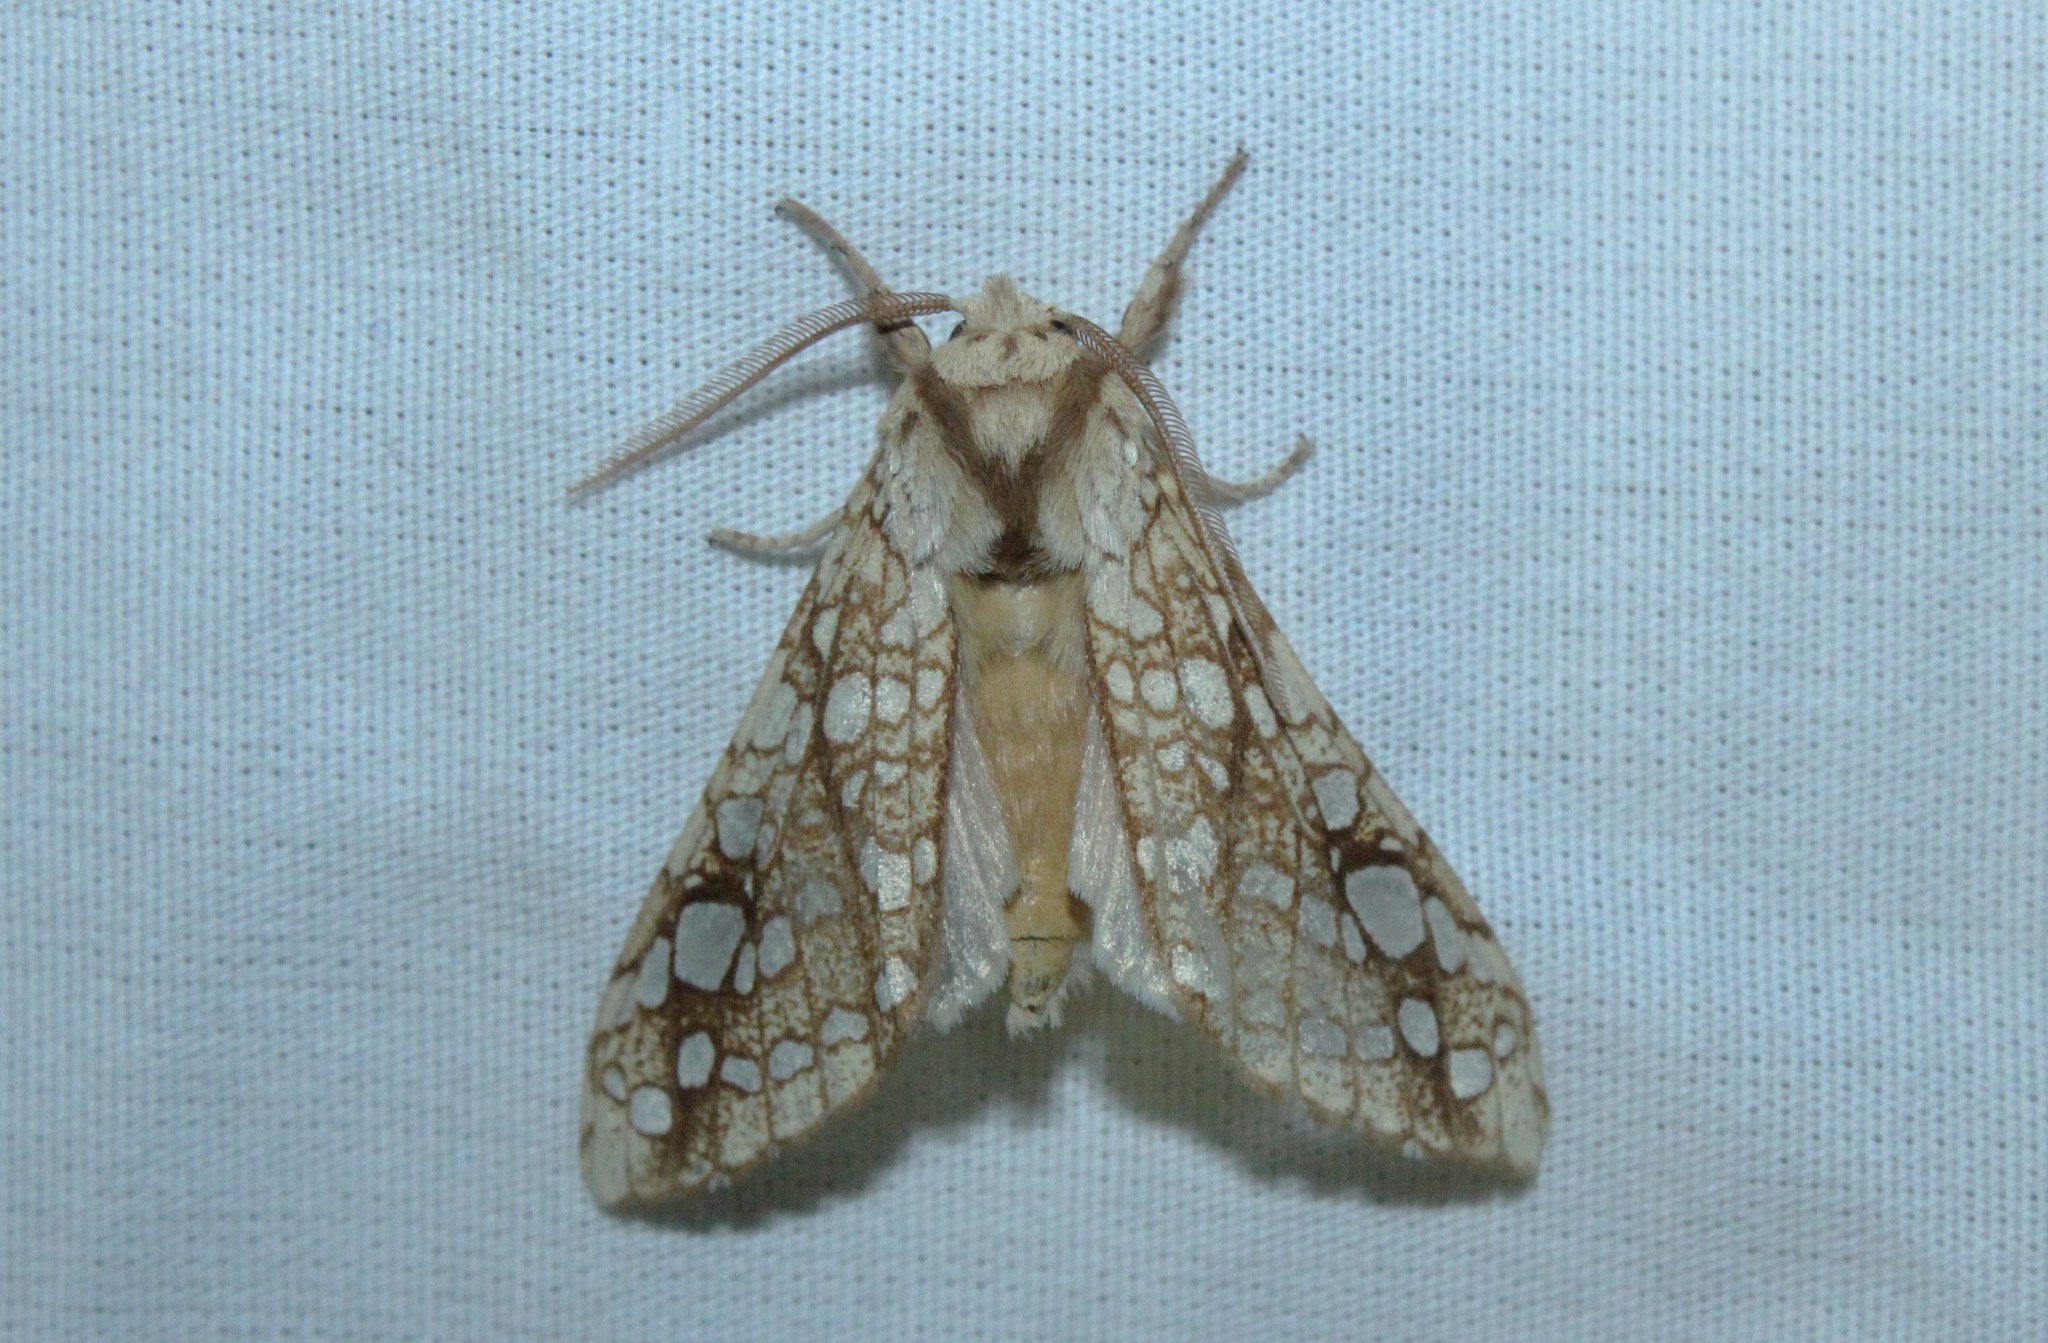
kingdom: Animalia
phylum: Arthropoda
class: Insecta
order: Lepidoptera
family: Erebidae
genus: Lophocampa
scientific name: Lophocampa caryae
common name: Hickory tussock moth
